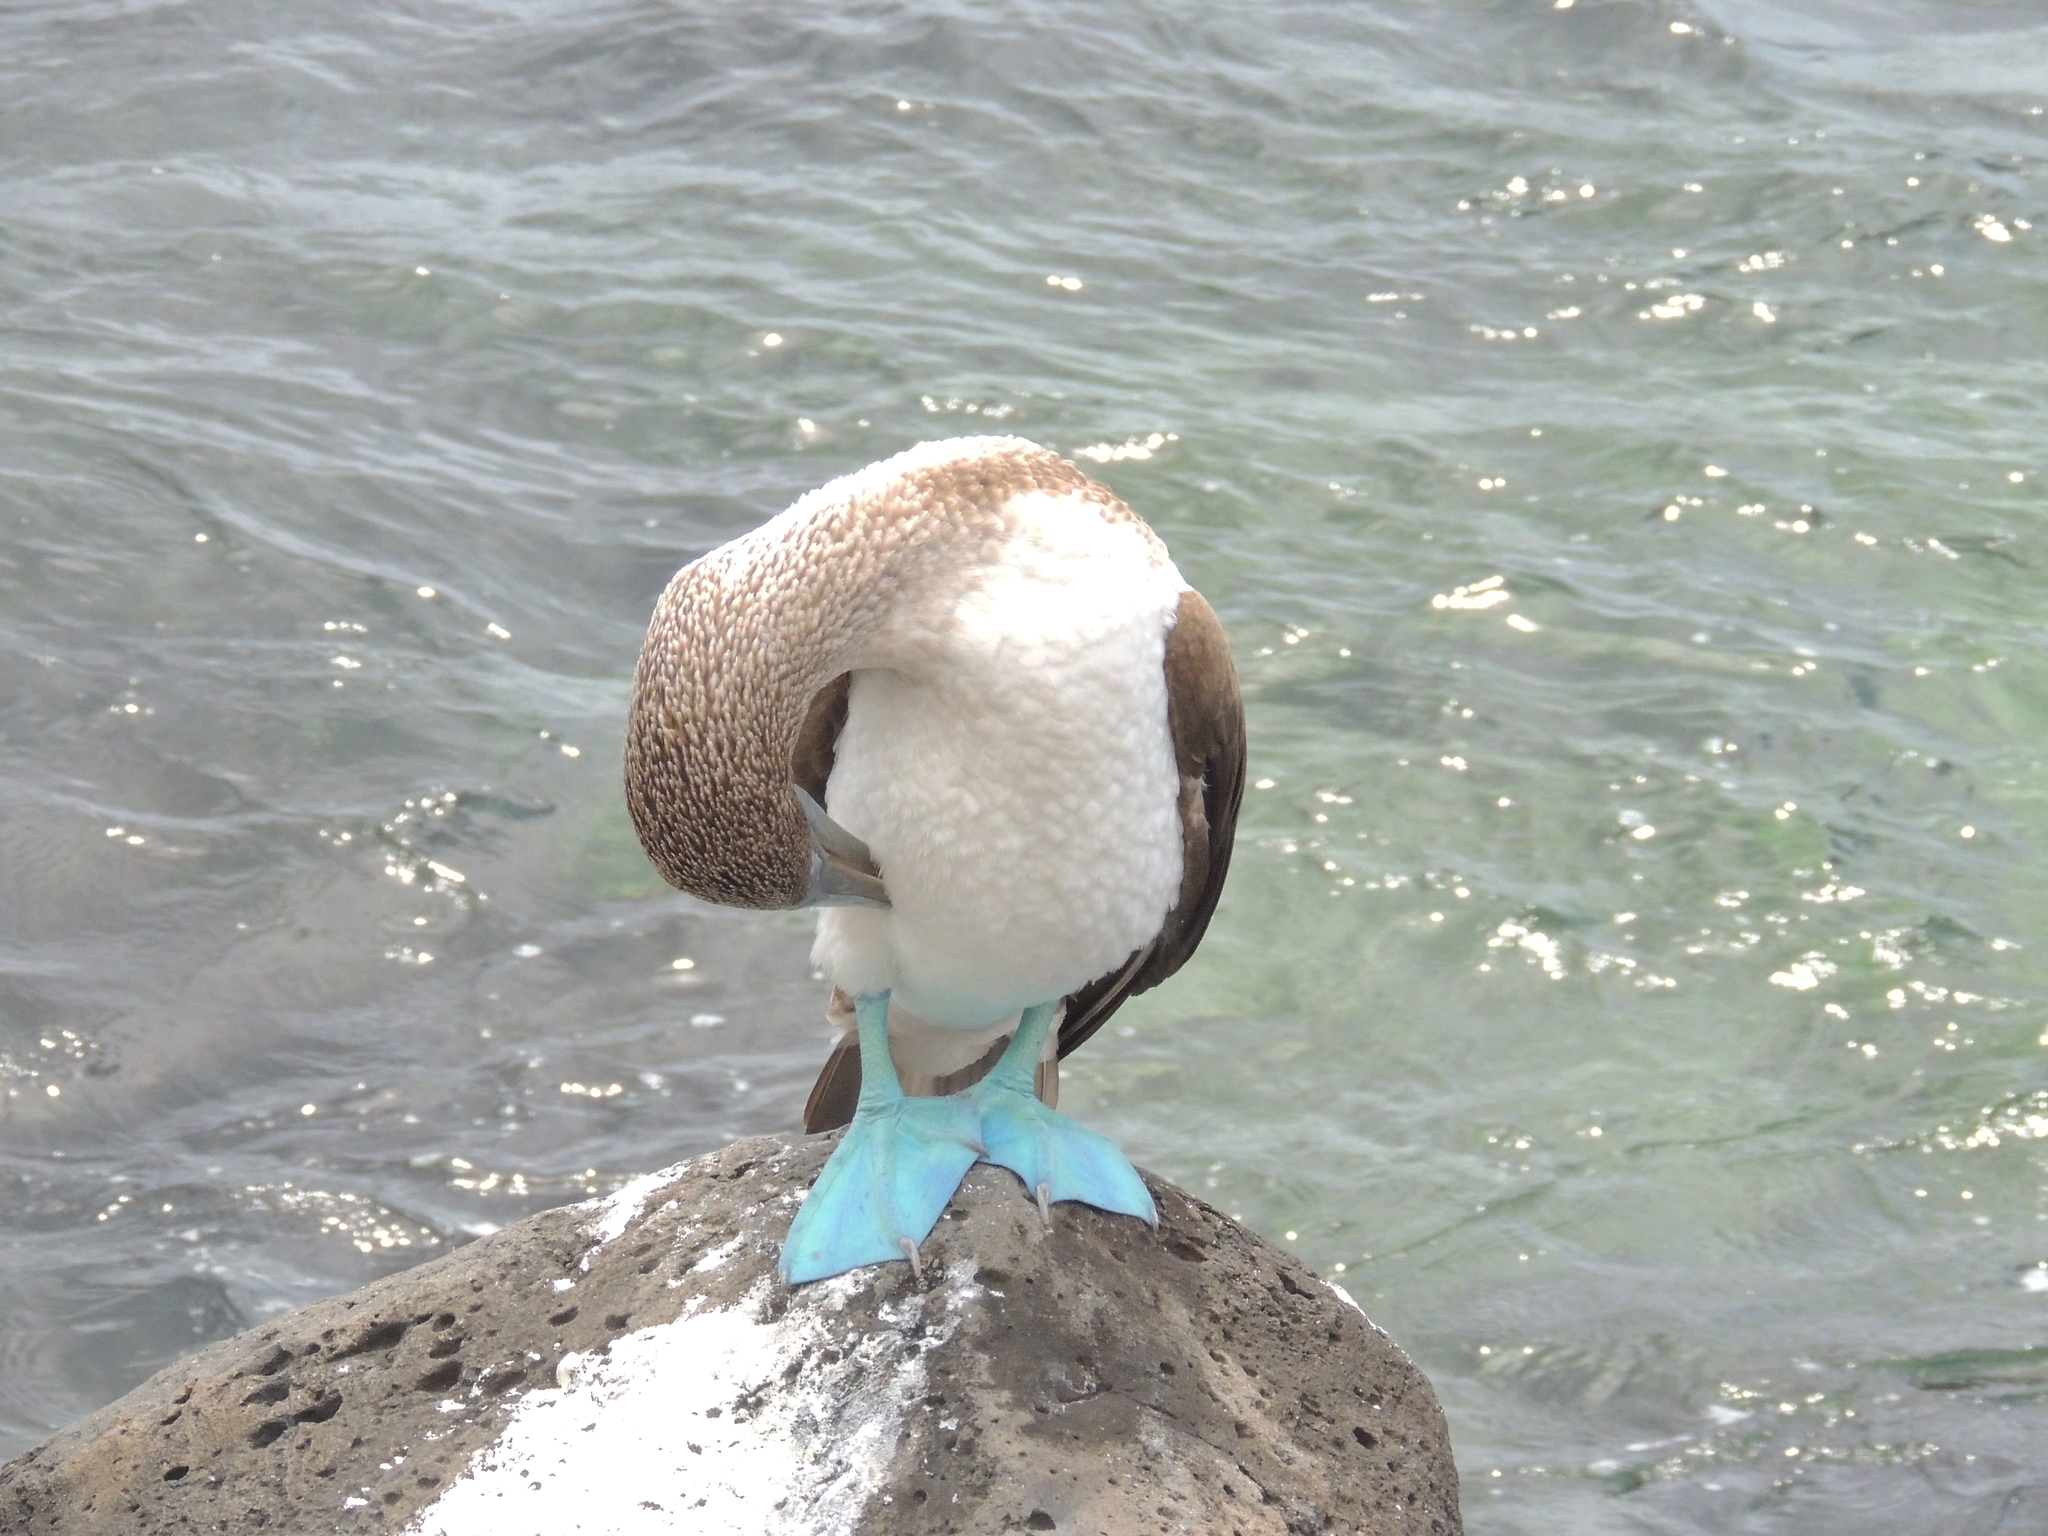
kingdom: Animalia
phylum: Chordata
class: Aves
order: Suliformes
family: Sulidae
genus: Sula
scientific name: Sula nebouxii
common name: Blue-footed booby
